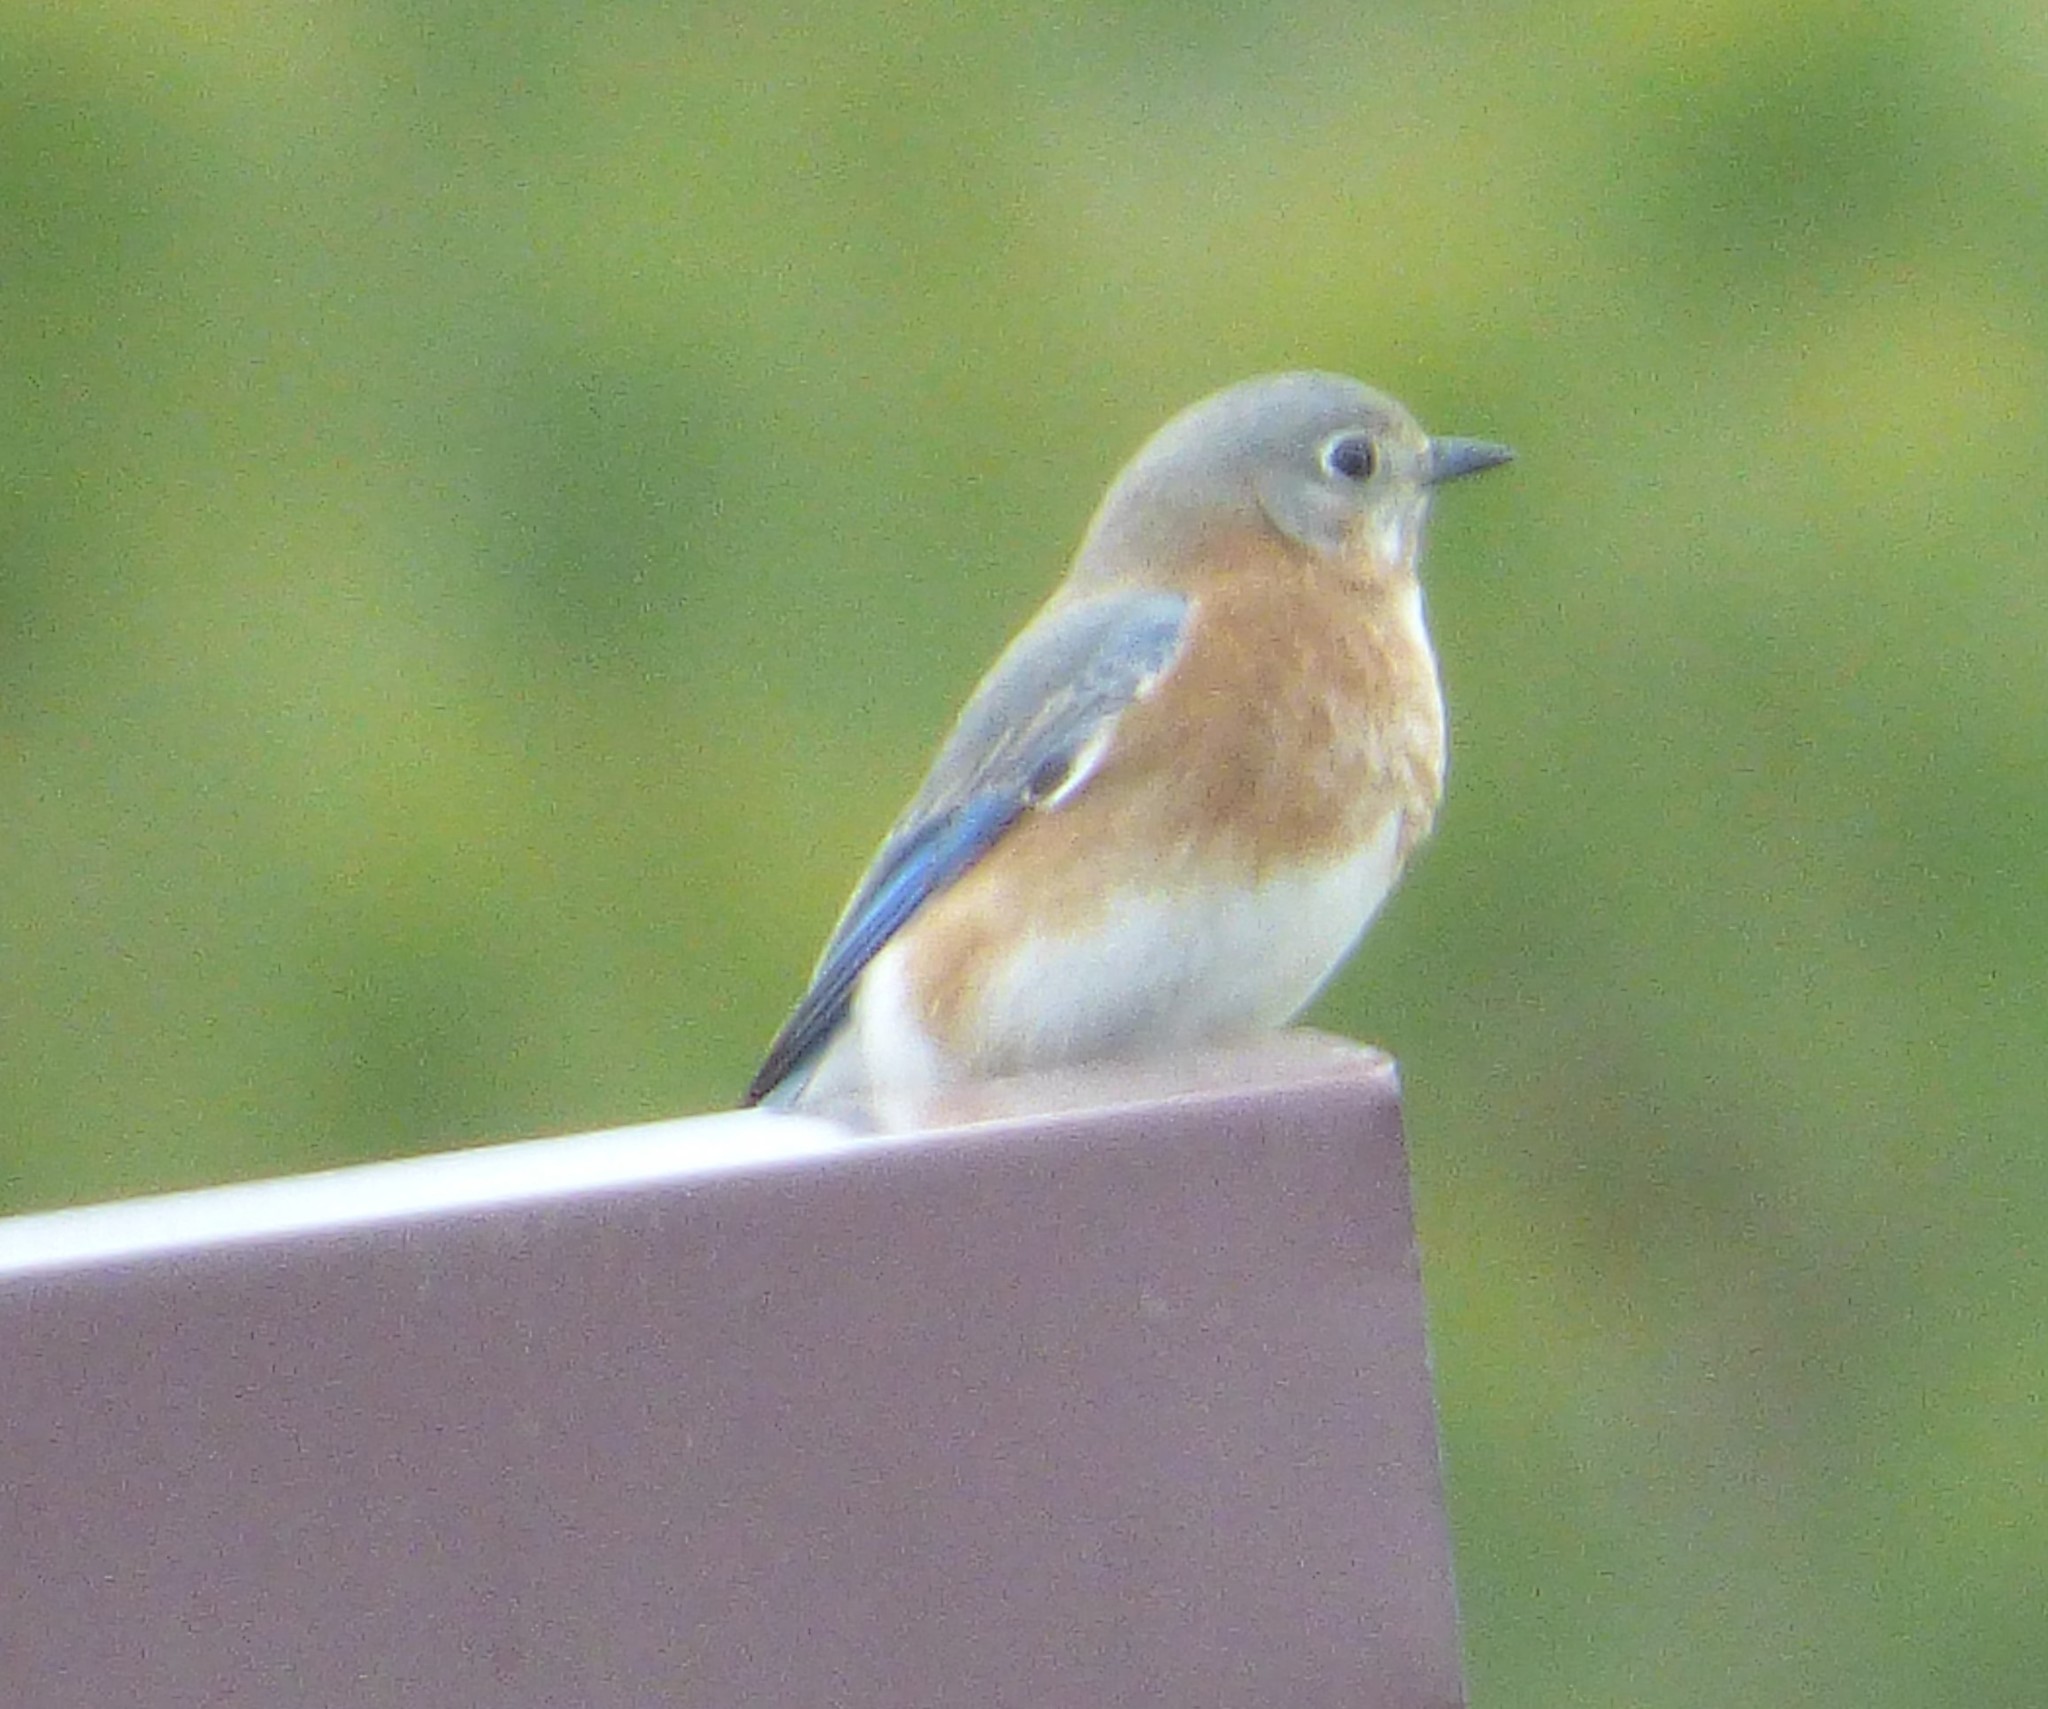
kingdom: Animalia
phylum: Chordata
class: Aves
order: Passeriformes
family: Turdidae
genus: Sialia
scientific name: Sialia sialis
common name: Eastern bluebird
